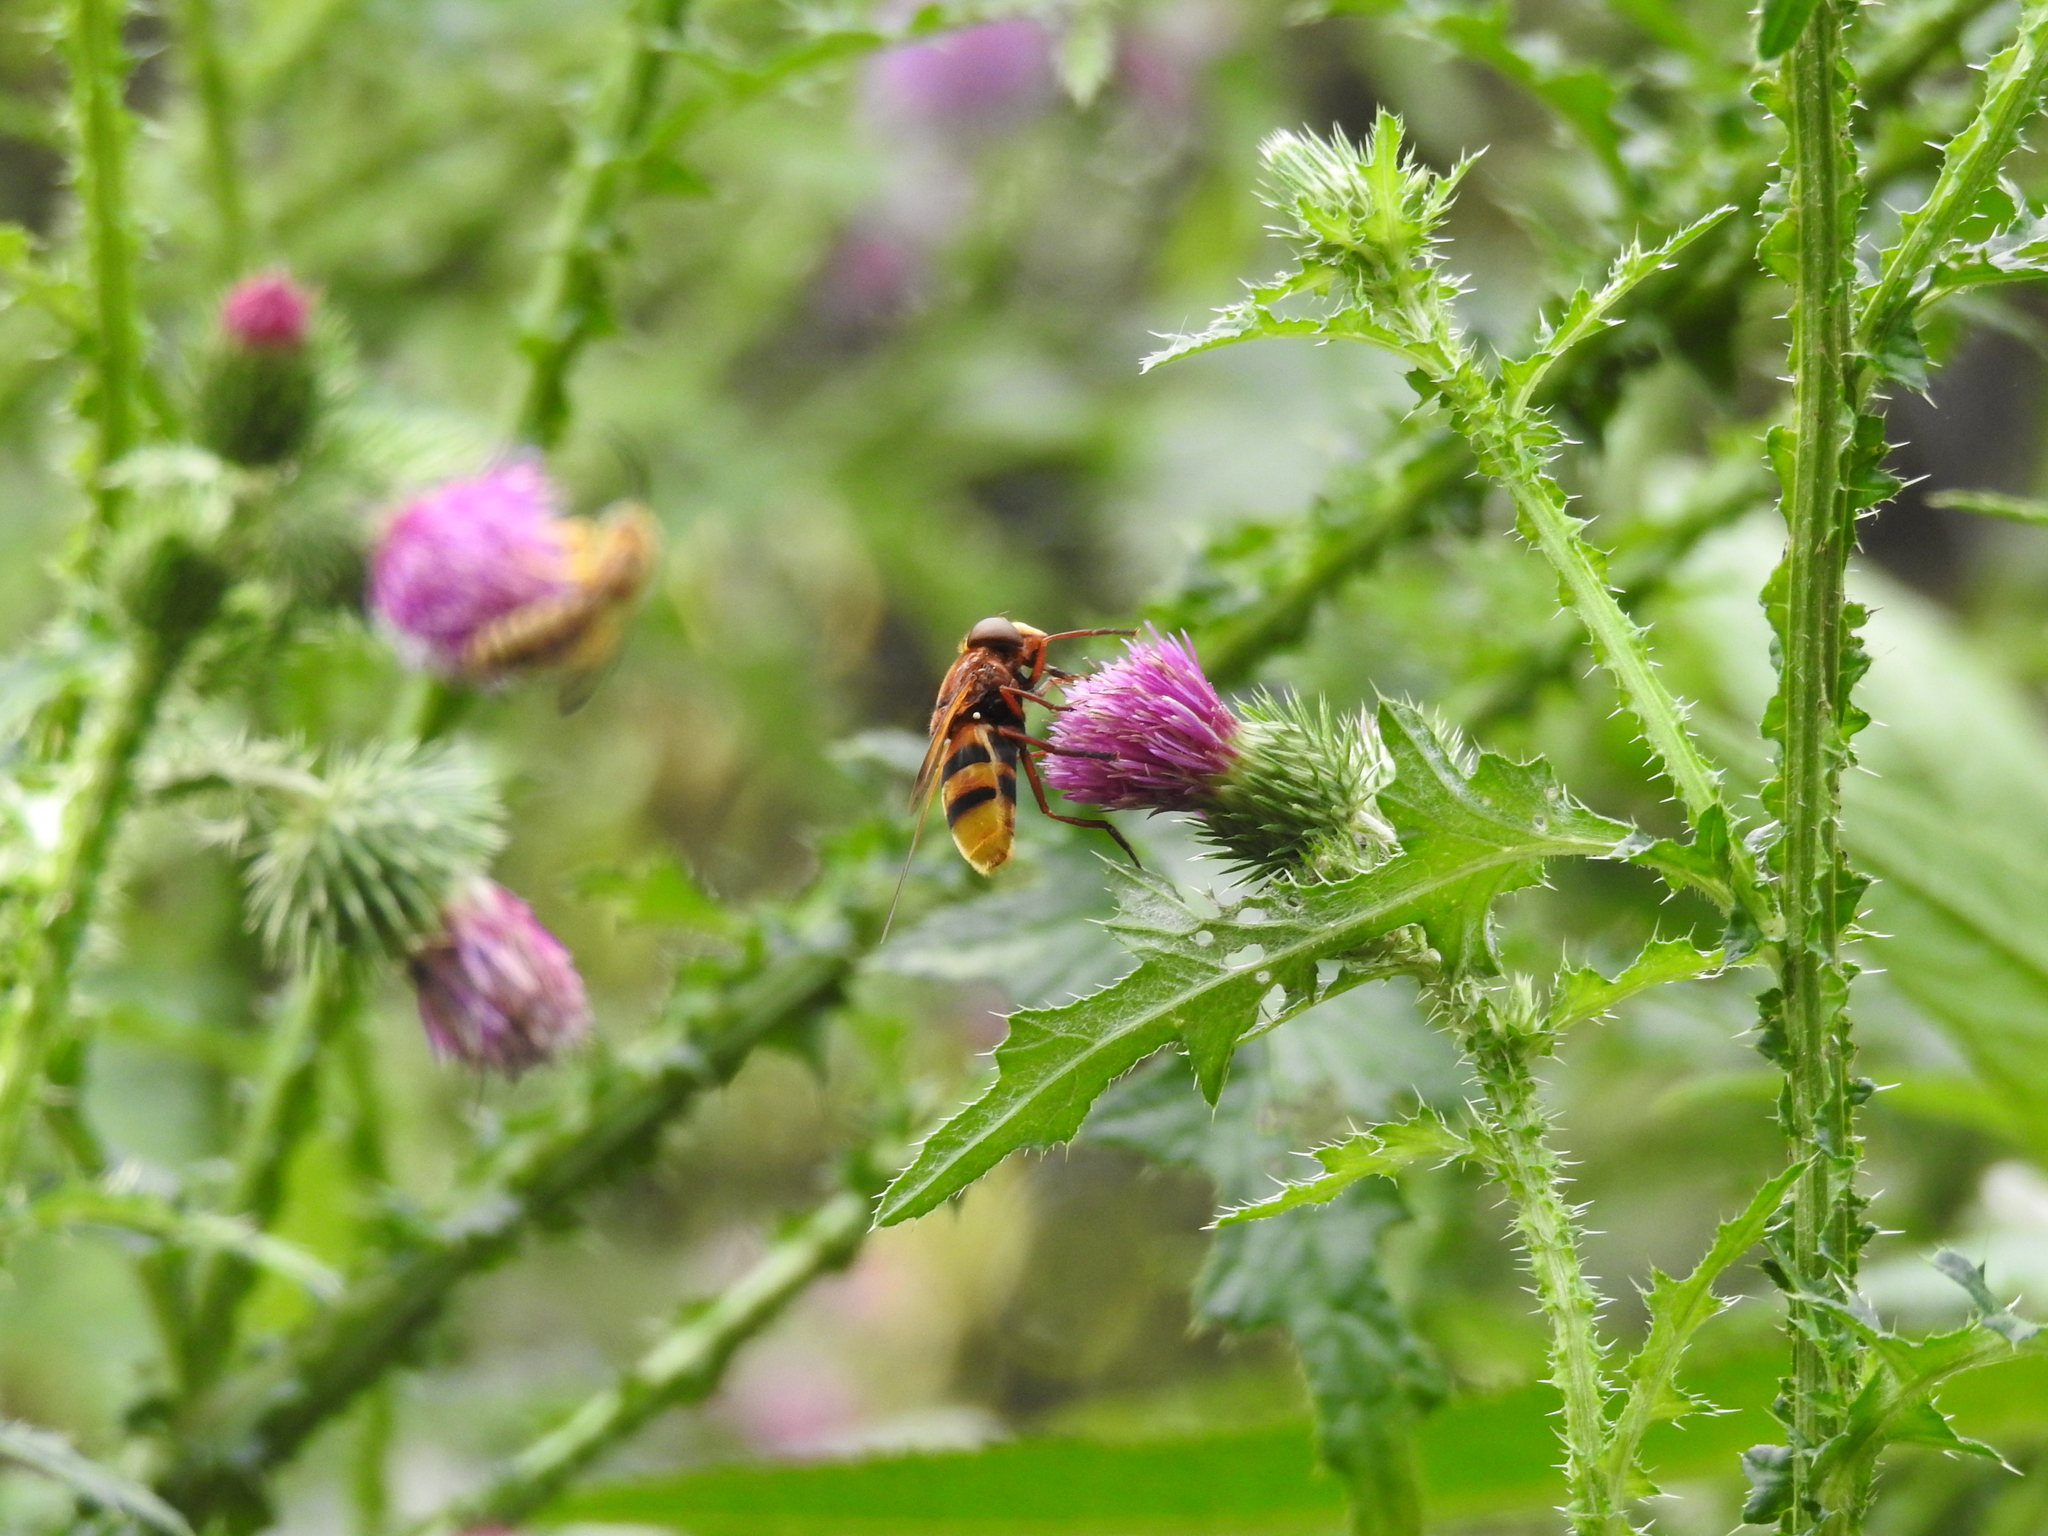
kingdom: Animalia
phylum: Arthropoda
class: Insecta
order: Diptera
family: Syrphidae
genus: Volucella
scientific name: Volucella zonaria
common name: Hornet hoverfly
